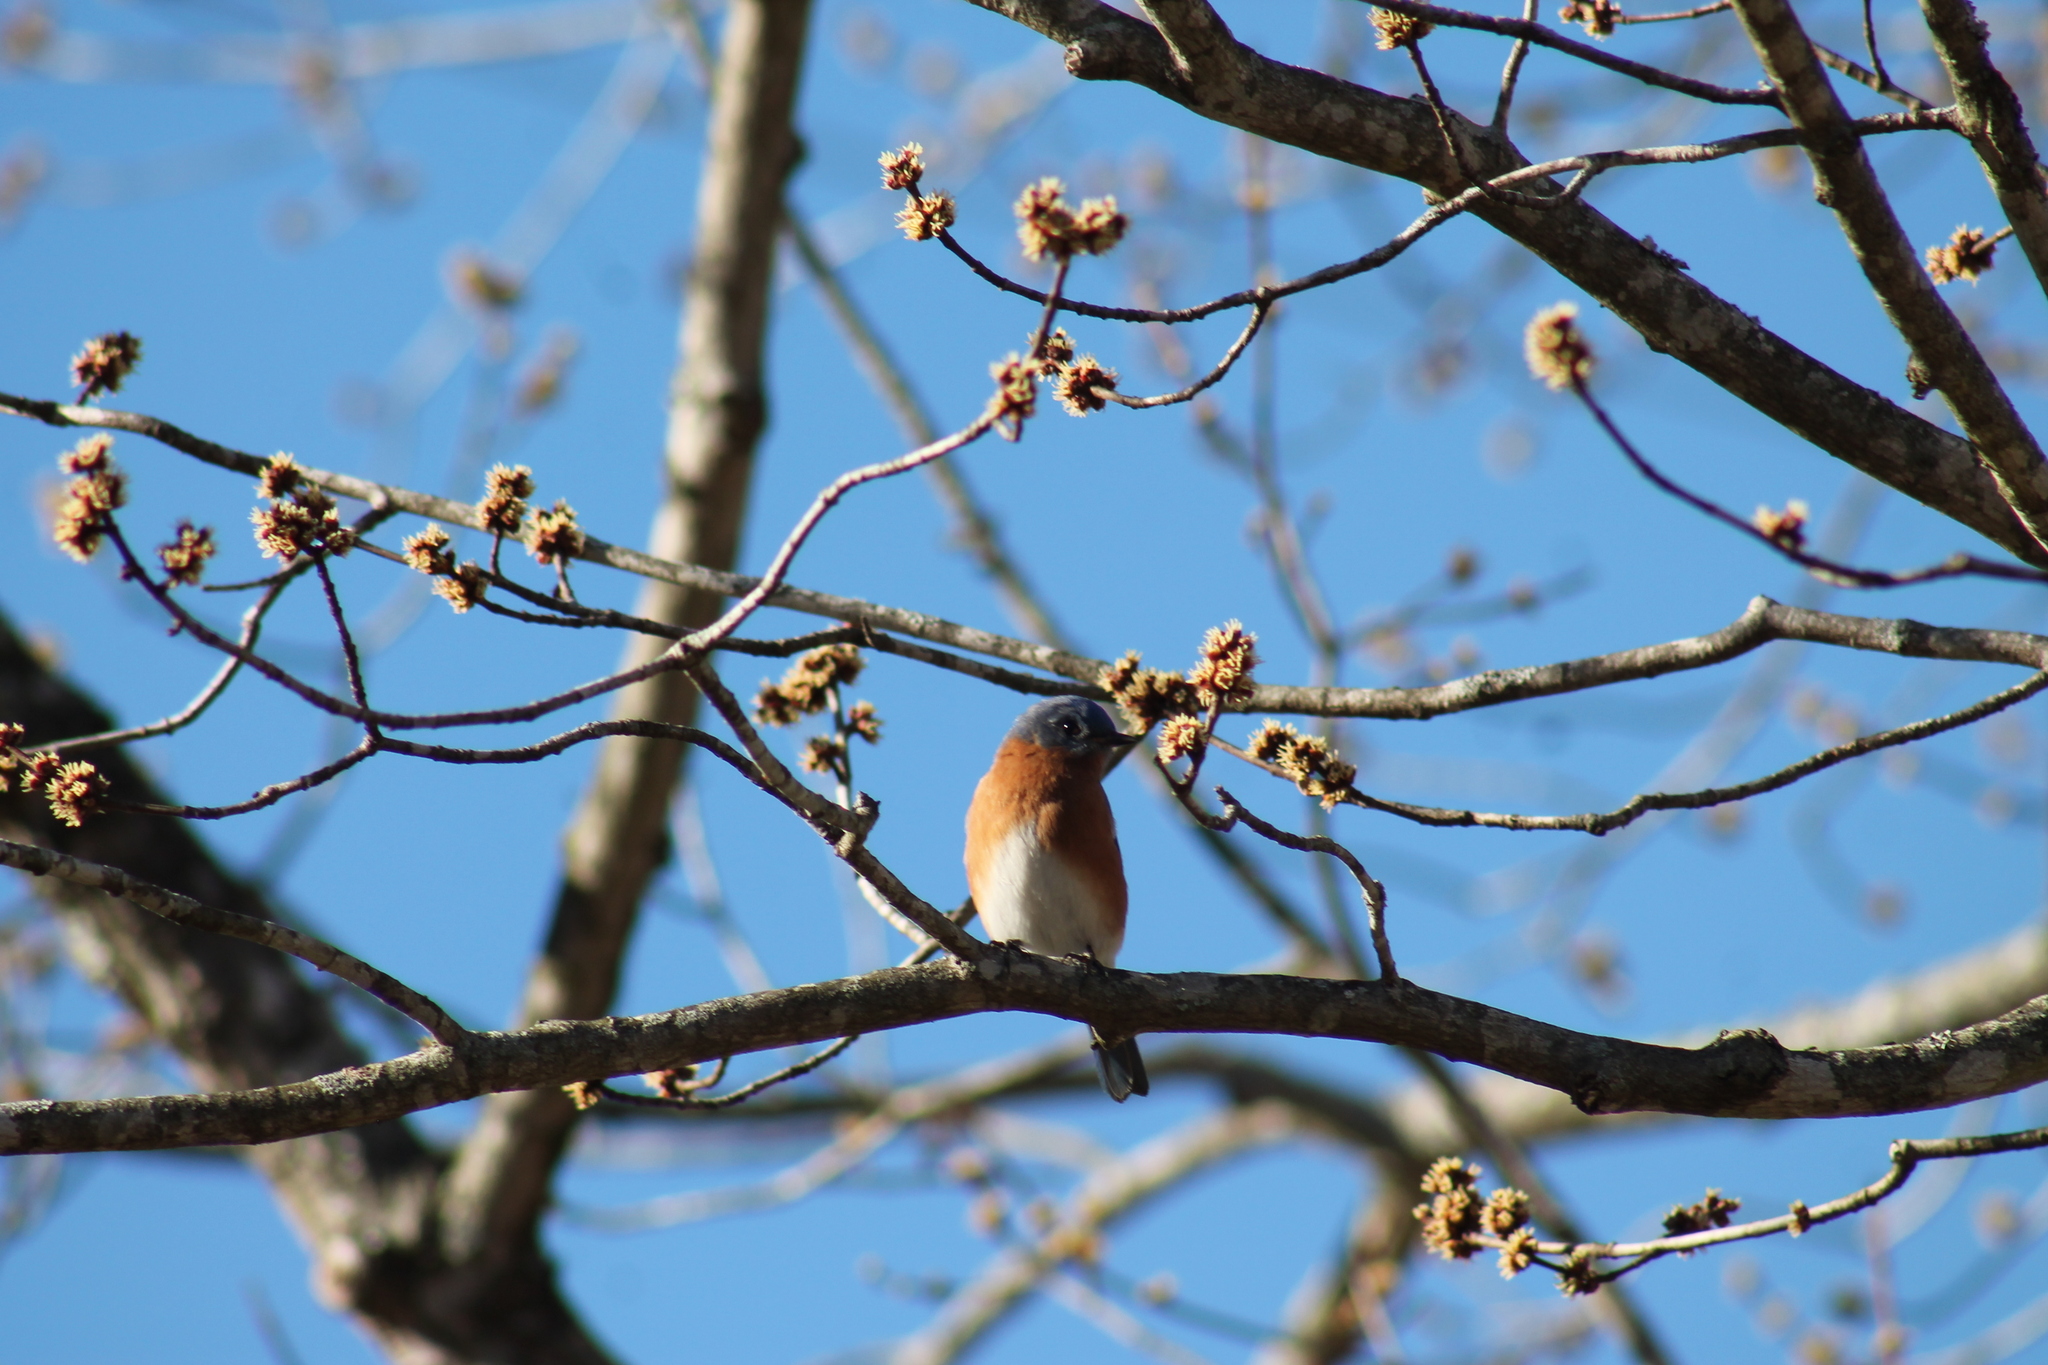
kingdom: Animalia
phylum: Chordata
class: Aves
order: Passeriformes
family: Turdidae
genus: Sialia
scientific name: Sialia sialis
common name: Eastern bluebird
